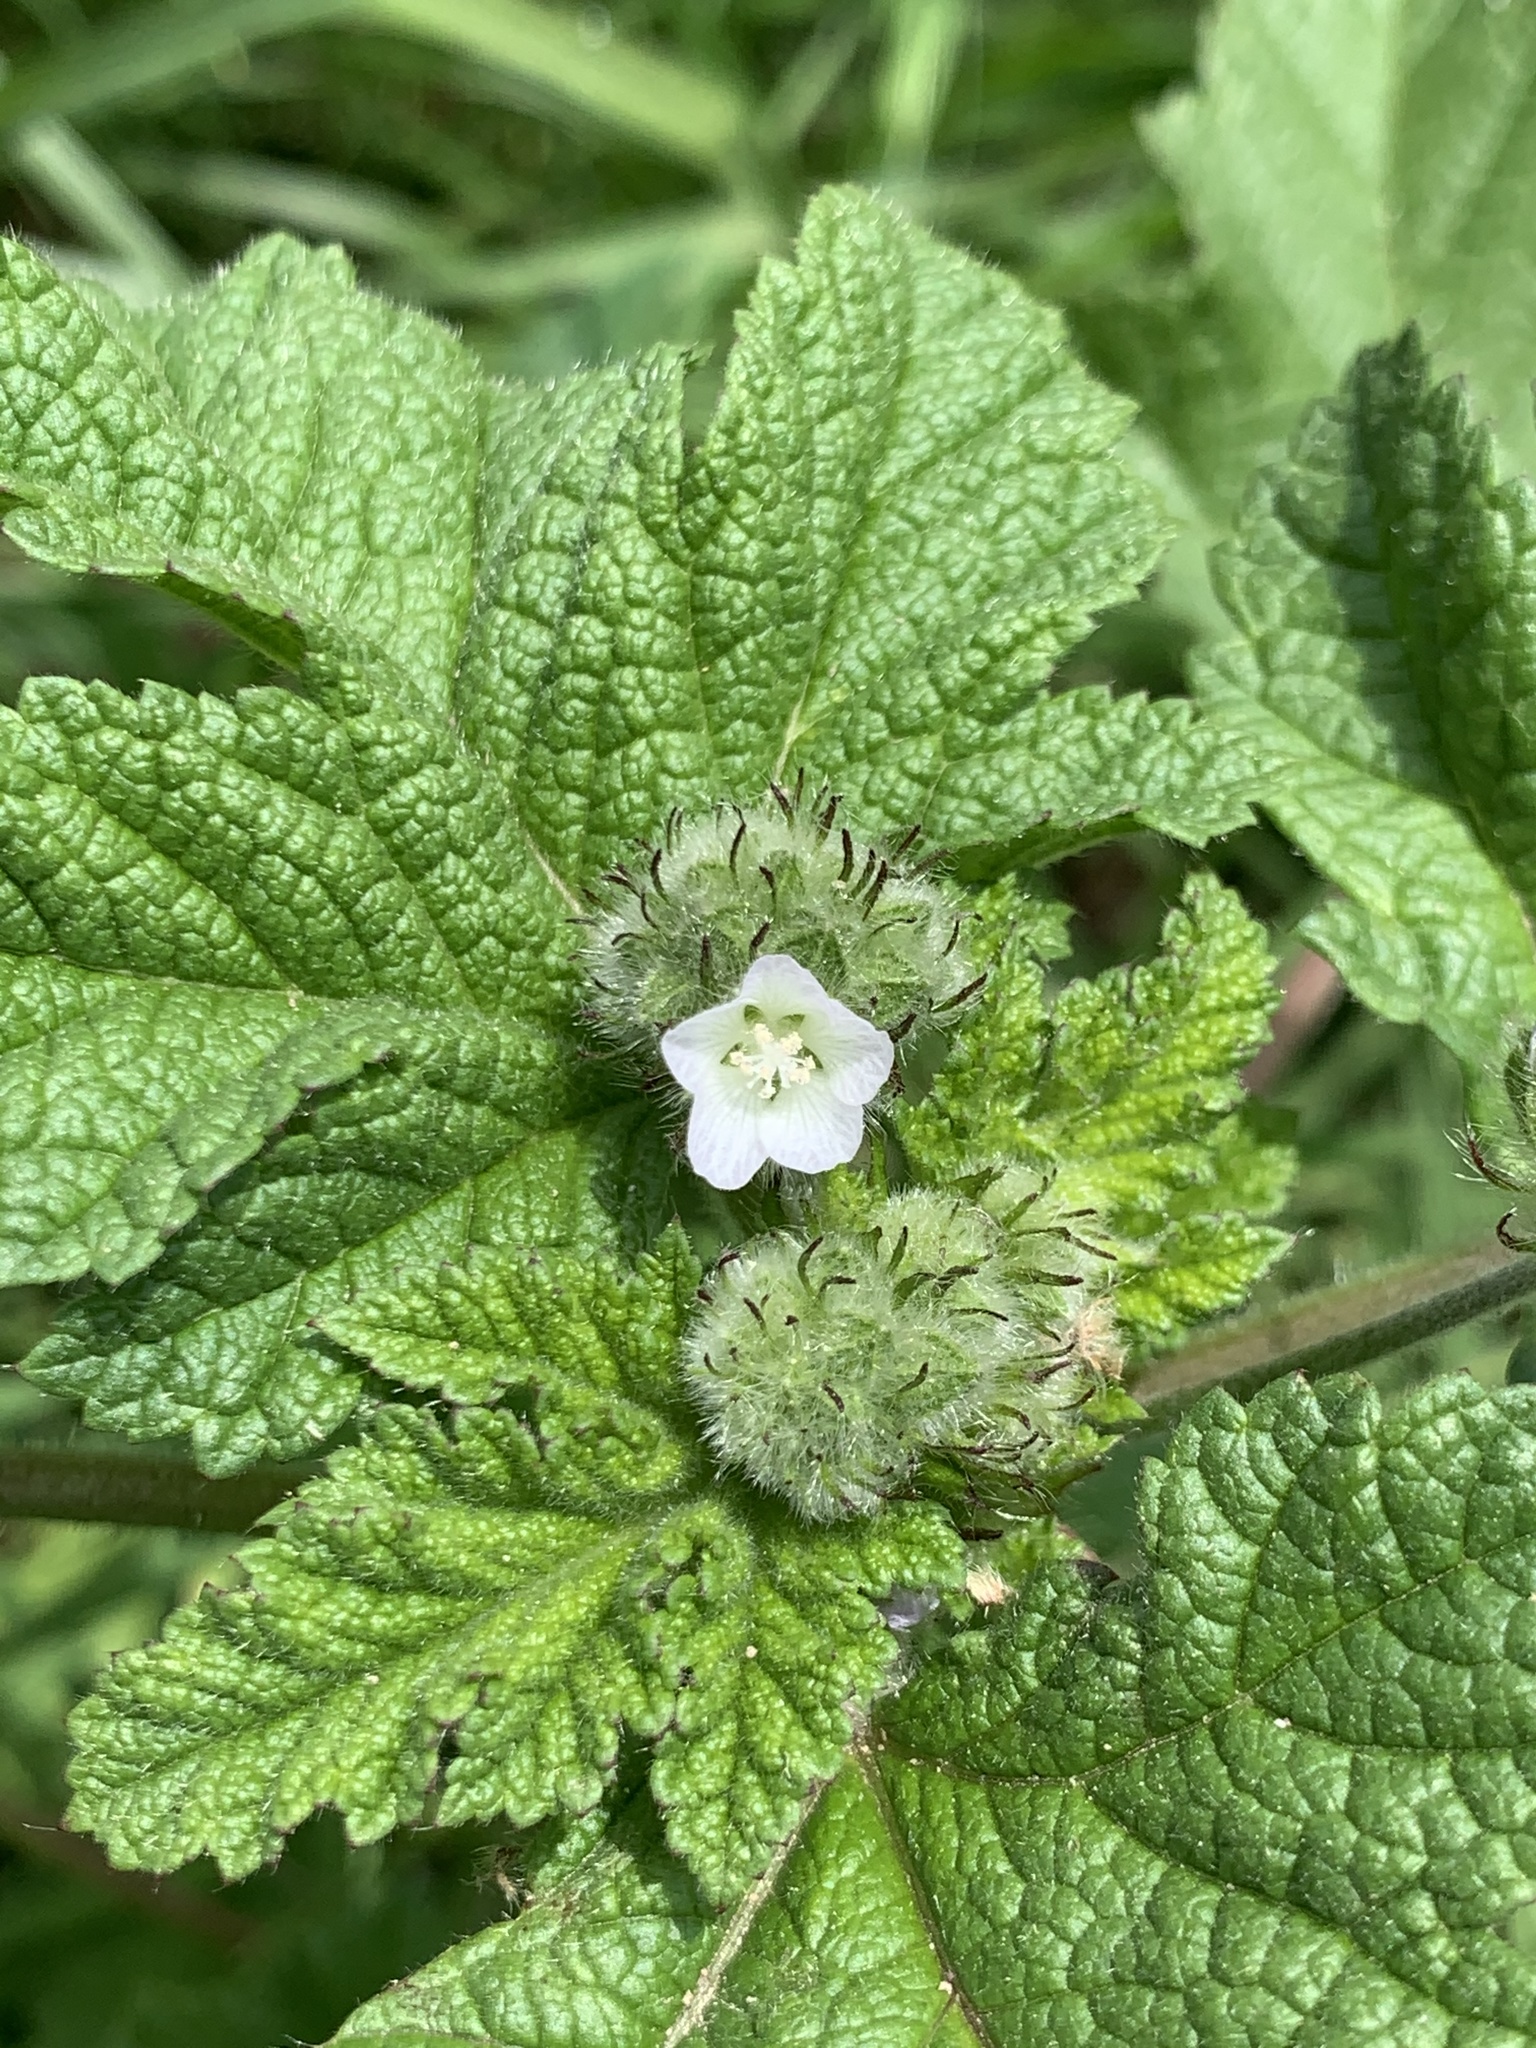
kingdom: Plantae
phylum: Tracheophyta
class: Magnoliopsida
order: Malvales
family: Malvaceae
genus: Fuertesimalva
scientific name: Fuertesimalva limensis
